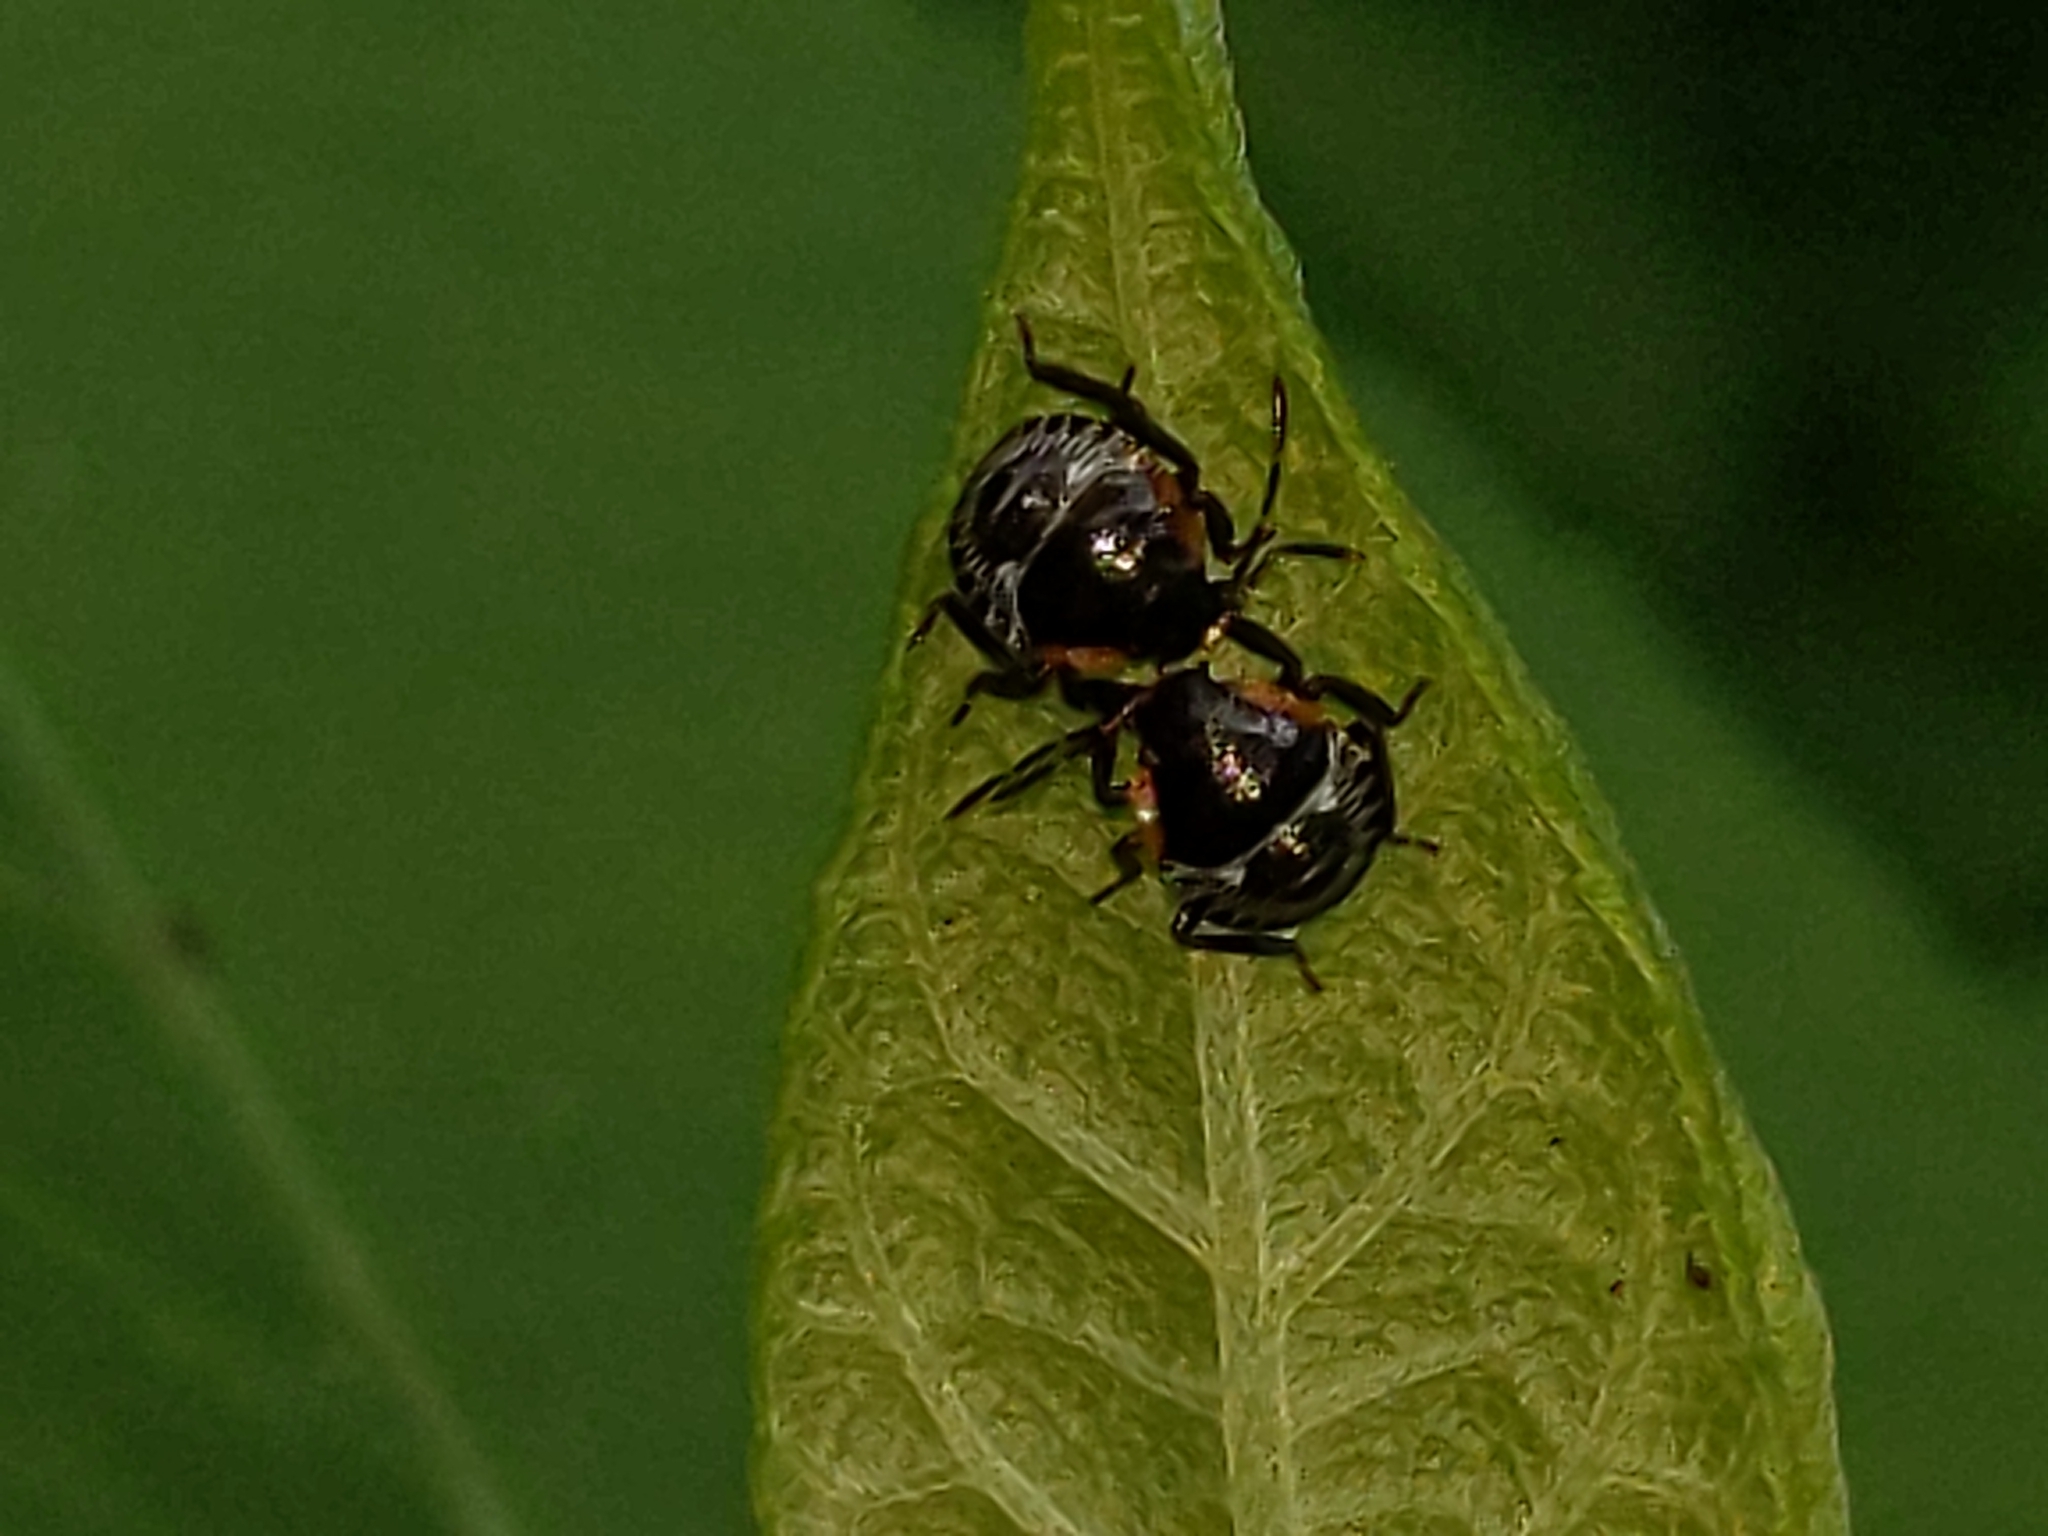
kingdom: Animalia
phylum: Arthropoda
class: Insecta
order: Hemiptera
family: Pentatomidae
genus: Chinavia
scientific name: Chinavia hilaris
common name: Green stink bug
